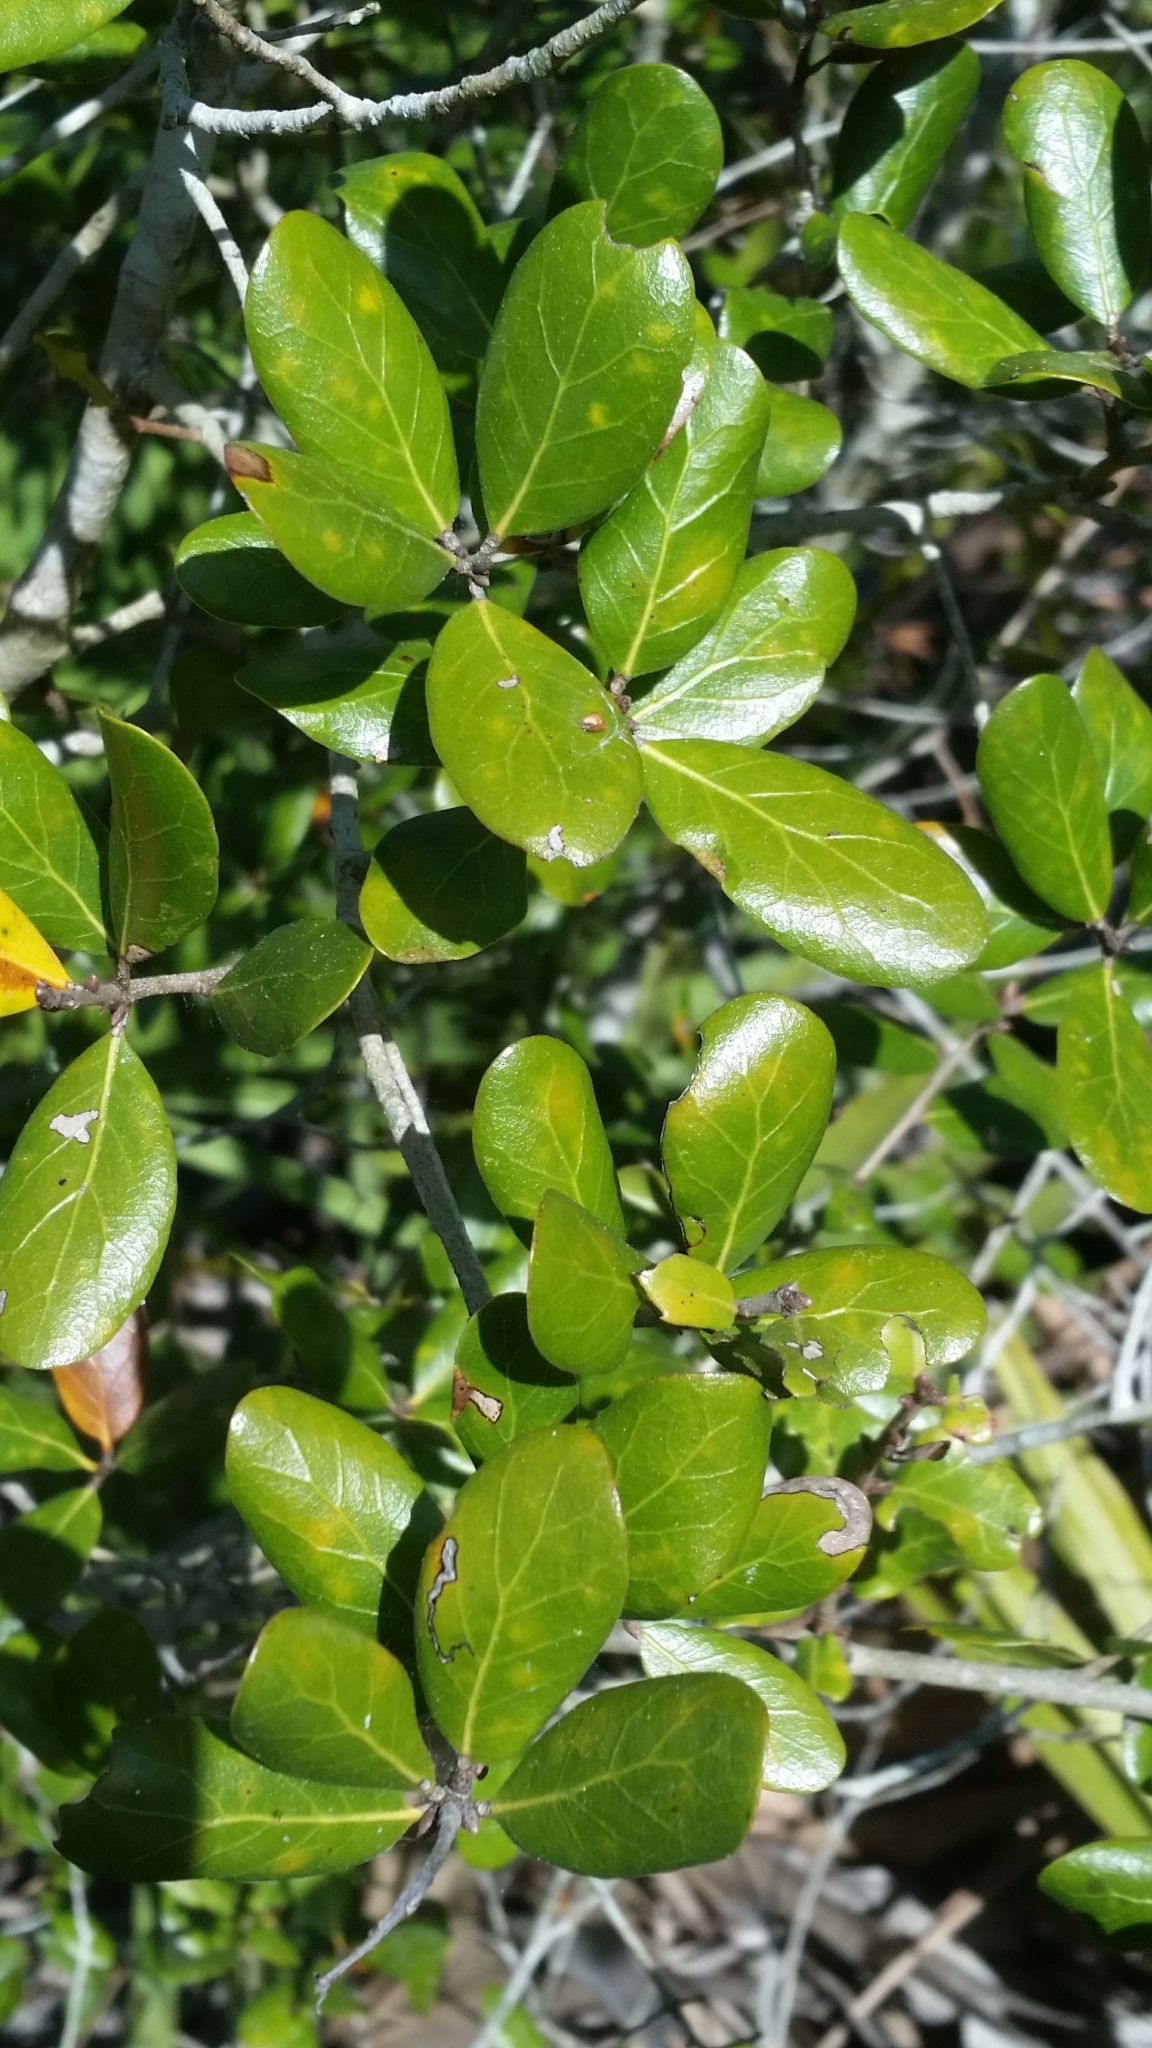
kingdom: Plantae
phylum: Tracheophyta
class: Magnoliopsida
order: Fagales
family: Fagaceae
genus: Quercus
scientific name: Quercus myrtifolia
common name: Myrtle oak
